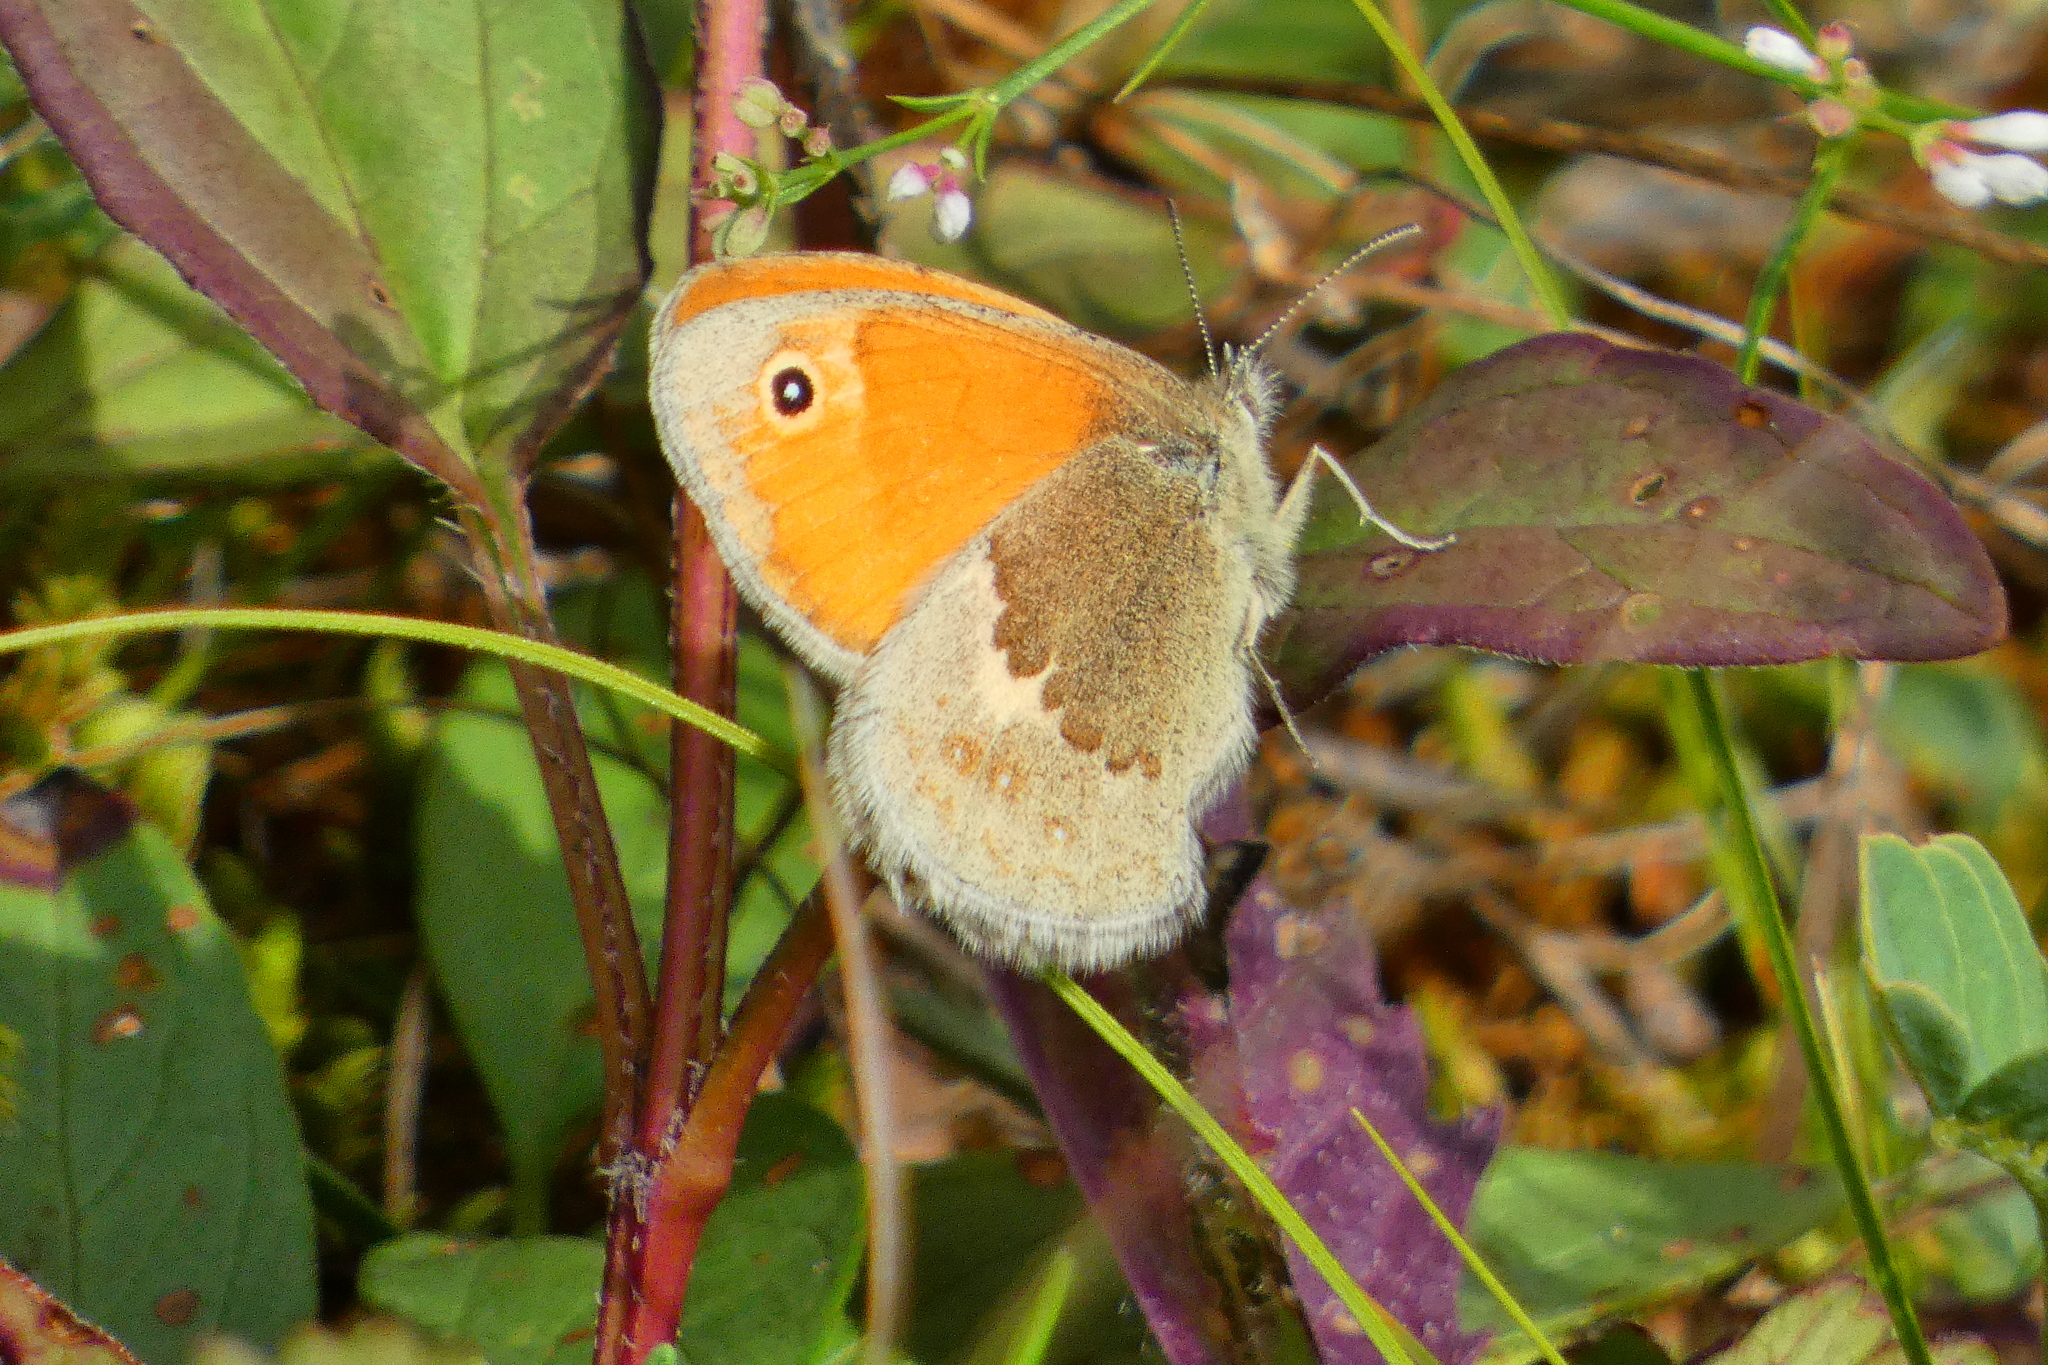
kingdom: Animalia
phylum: Arthropoda
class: Insecta
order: Lepidoptera
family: Nymphalidae
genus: Coenonympha
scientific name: Coenonympha pamphilus
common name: Small heath
